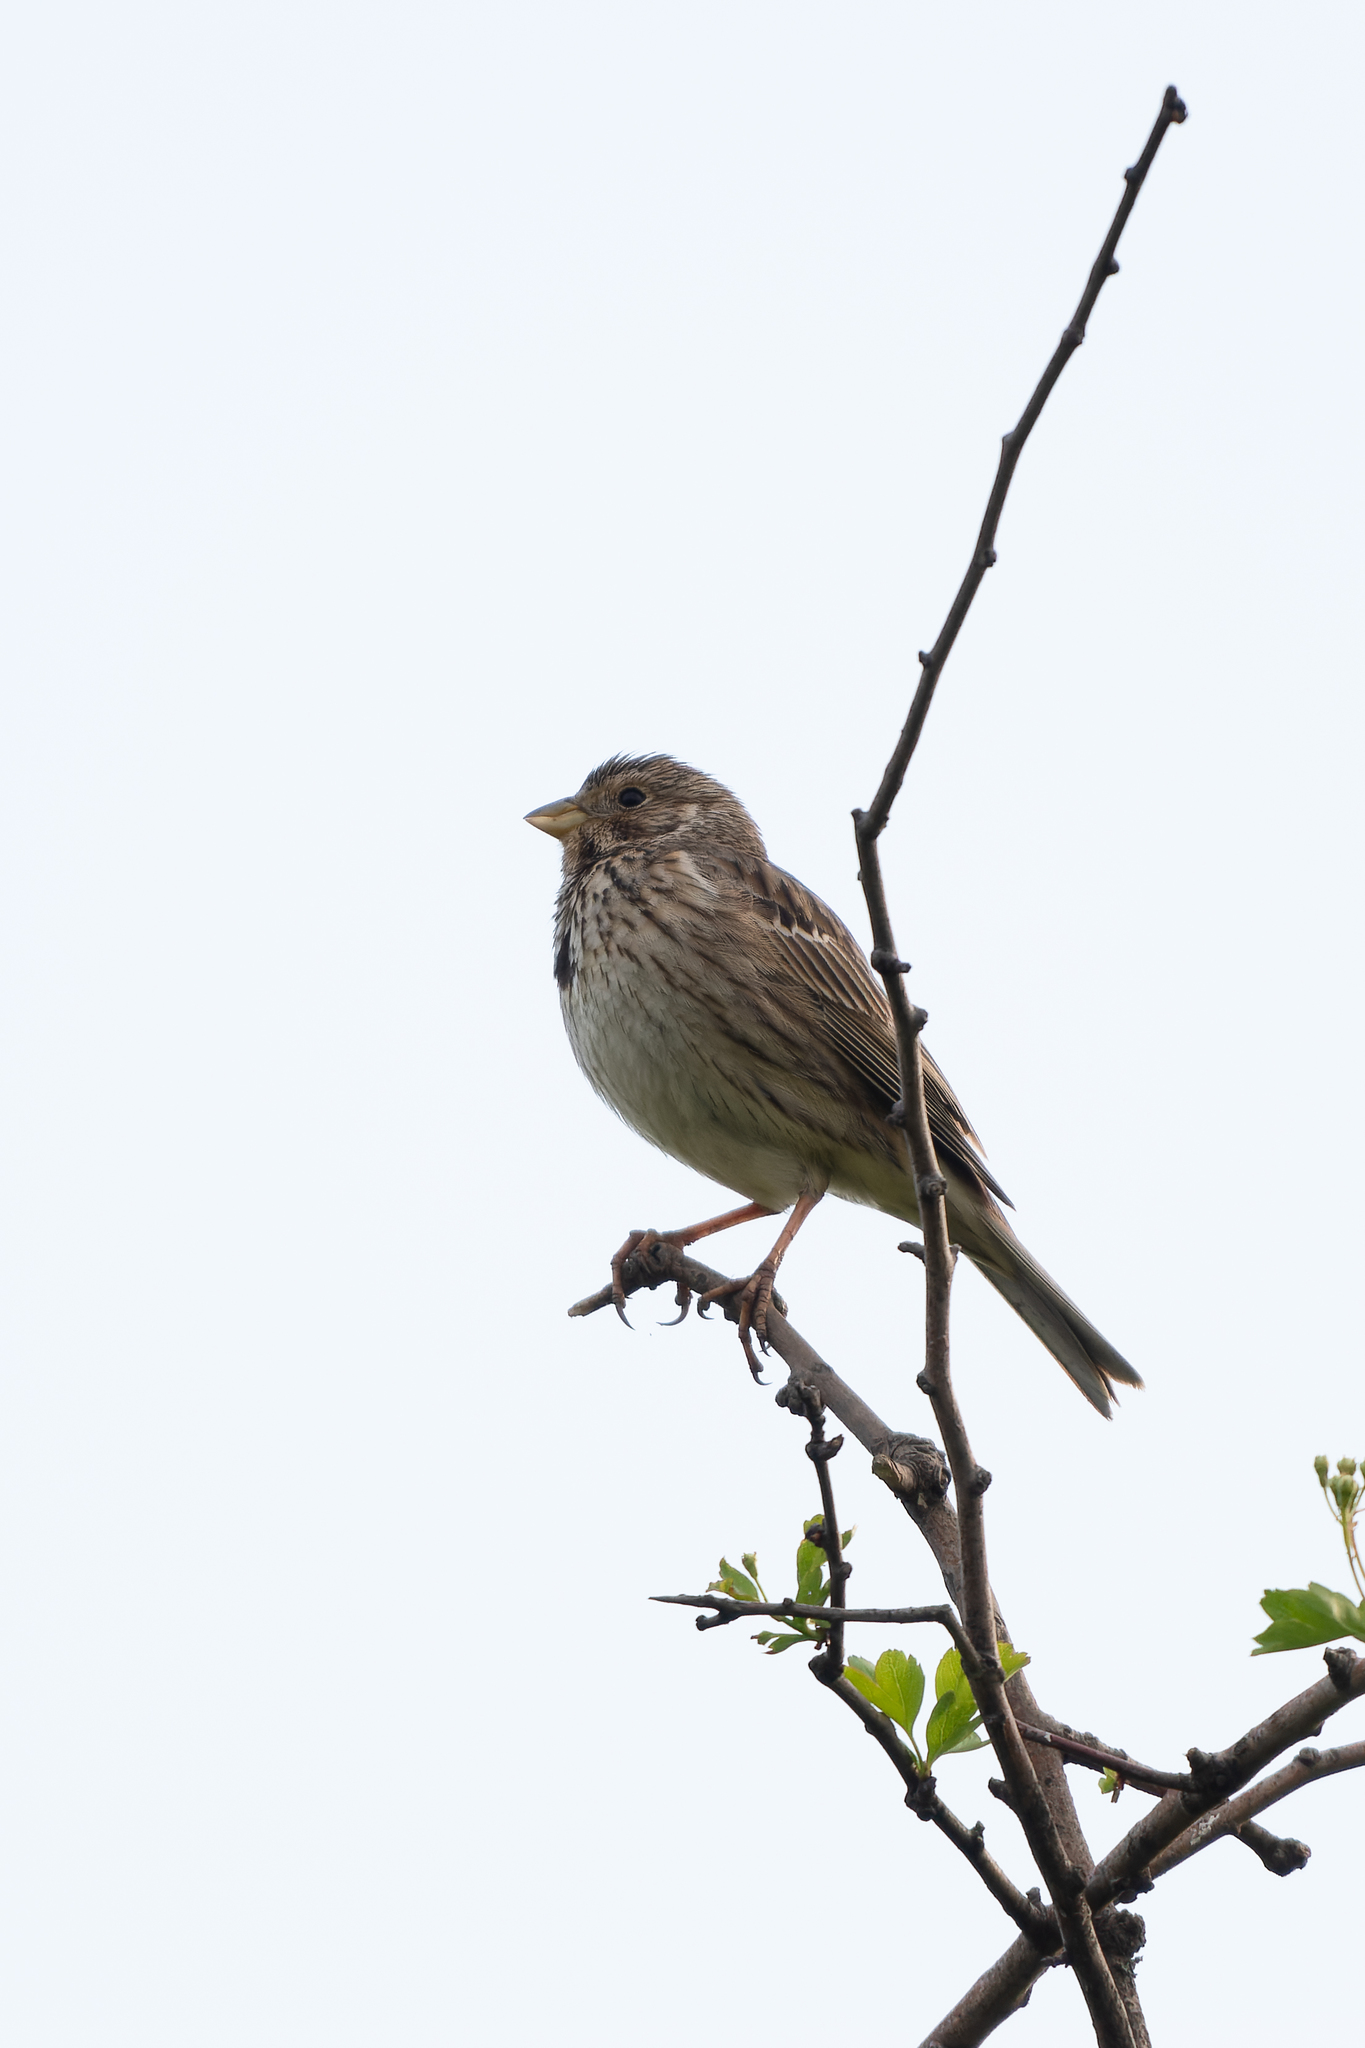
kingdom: Animalia
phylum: Chordata
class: Aves
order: Passeriformes
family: Emberizidae
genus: Emberiza
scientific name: Emberiza calandra
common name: Corn bunting
